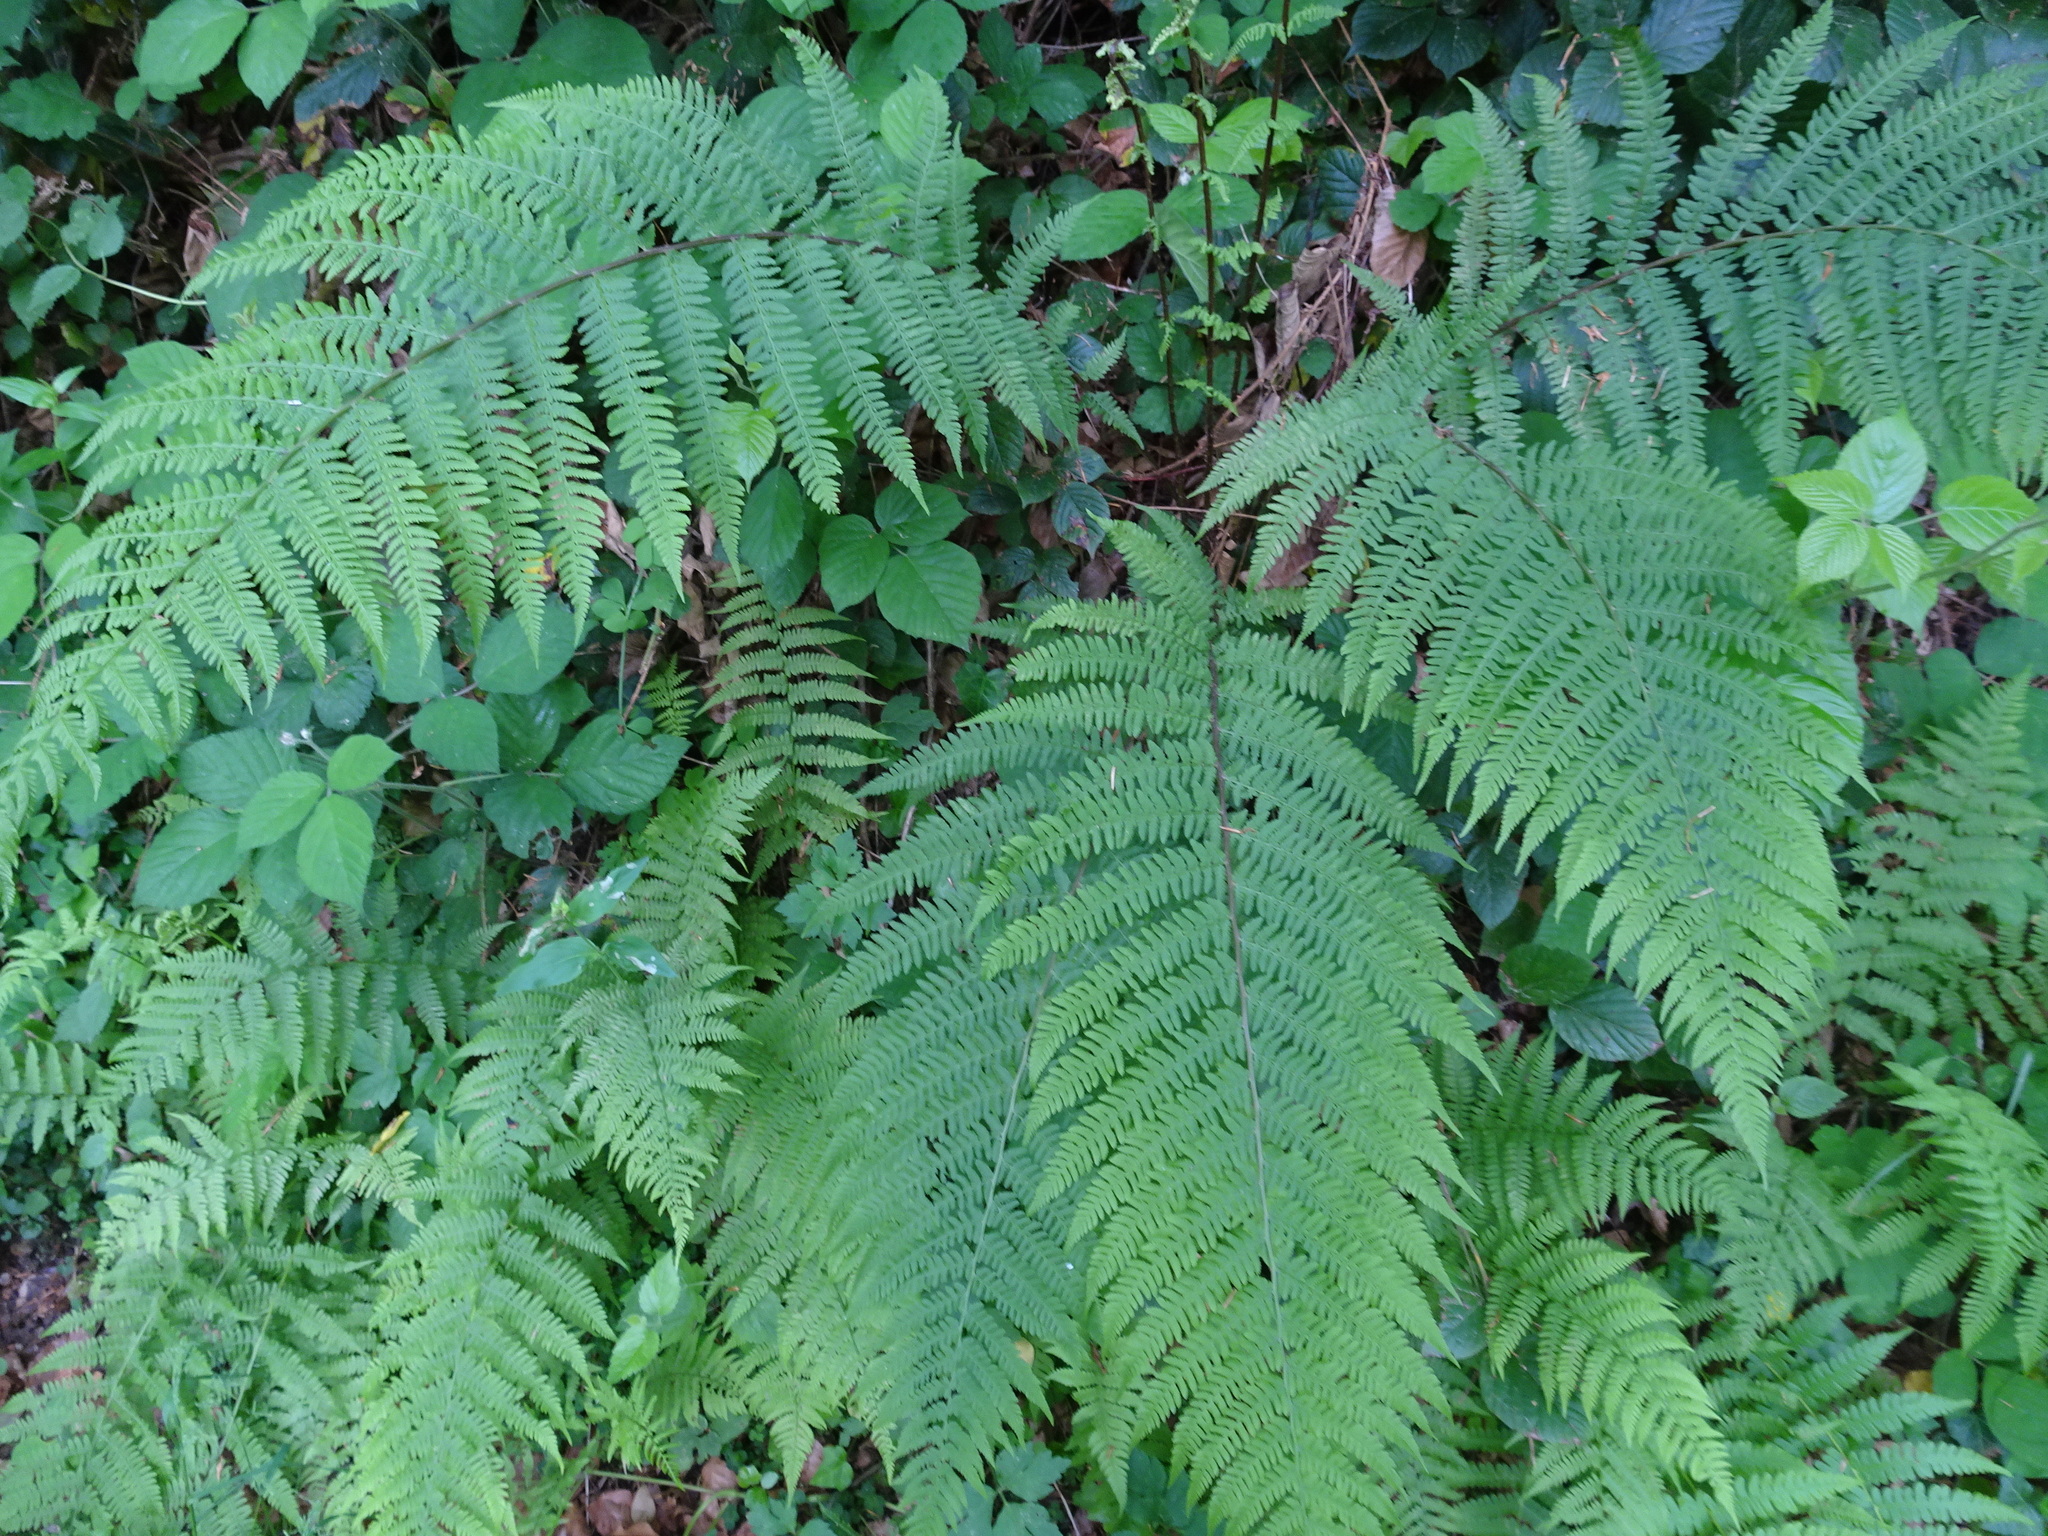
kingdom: Plantae
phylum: Tracheophyta
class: Polypodiopsida
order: Polypodiales
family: Athyriaceae
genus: Athyrium
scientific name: Athyrium filix-femina
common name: Lady fern
